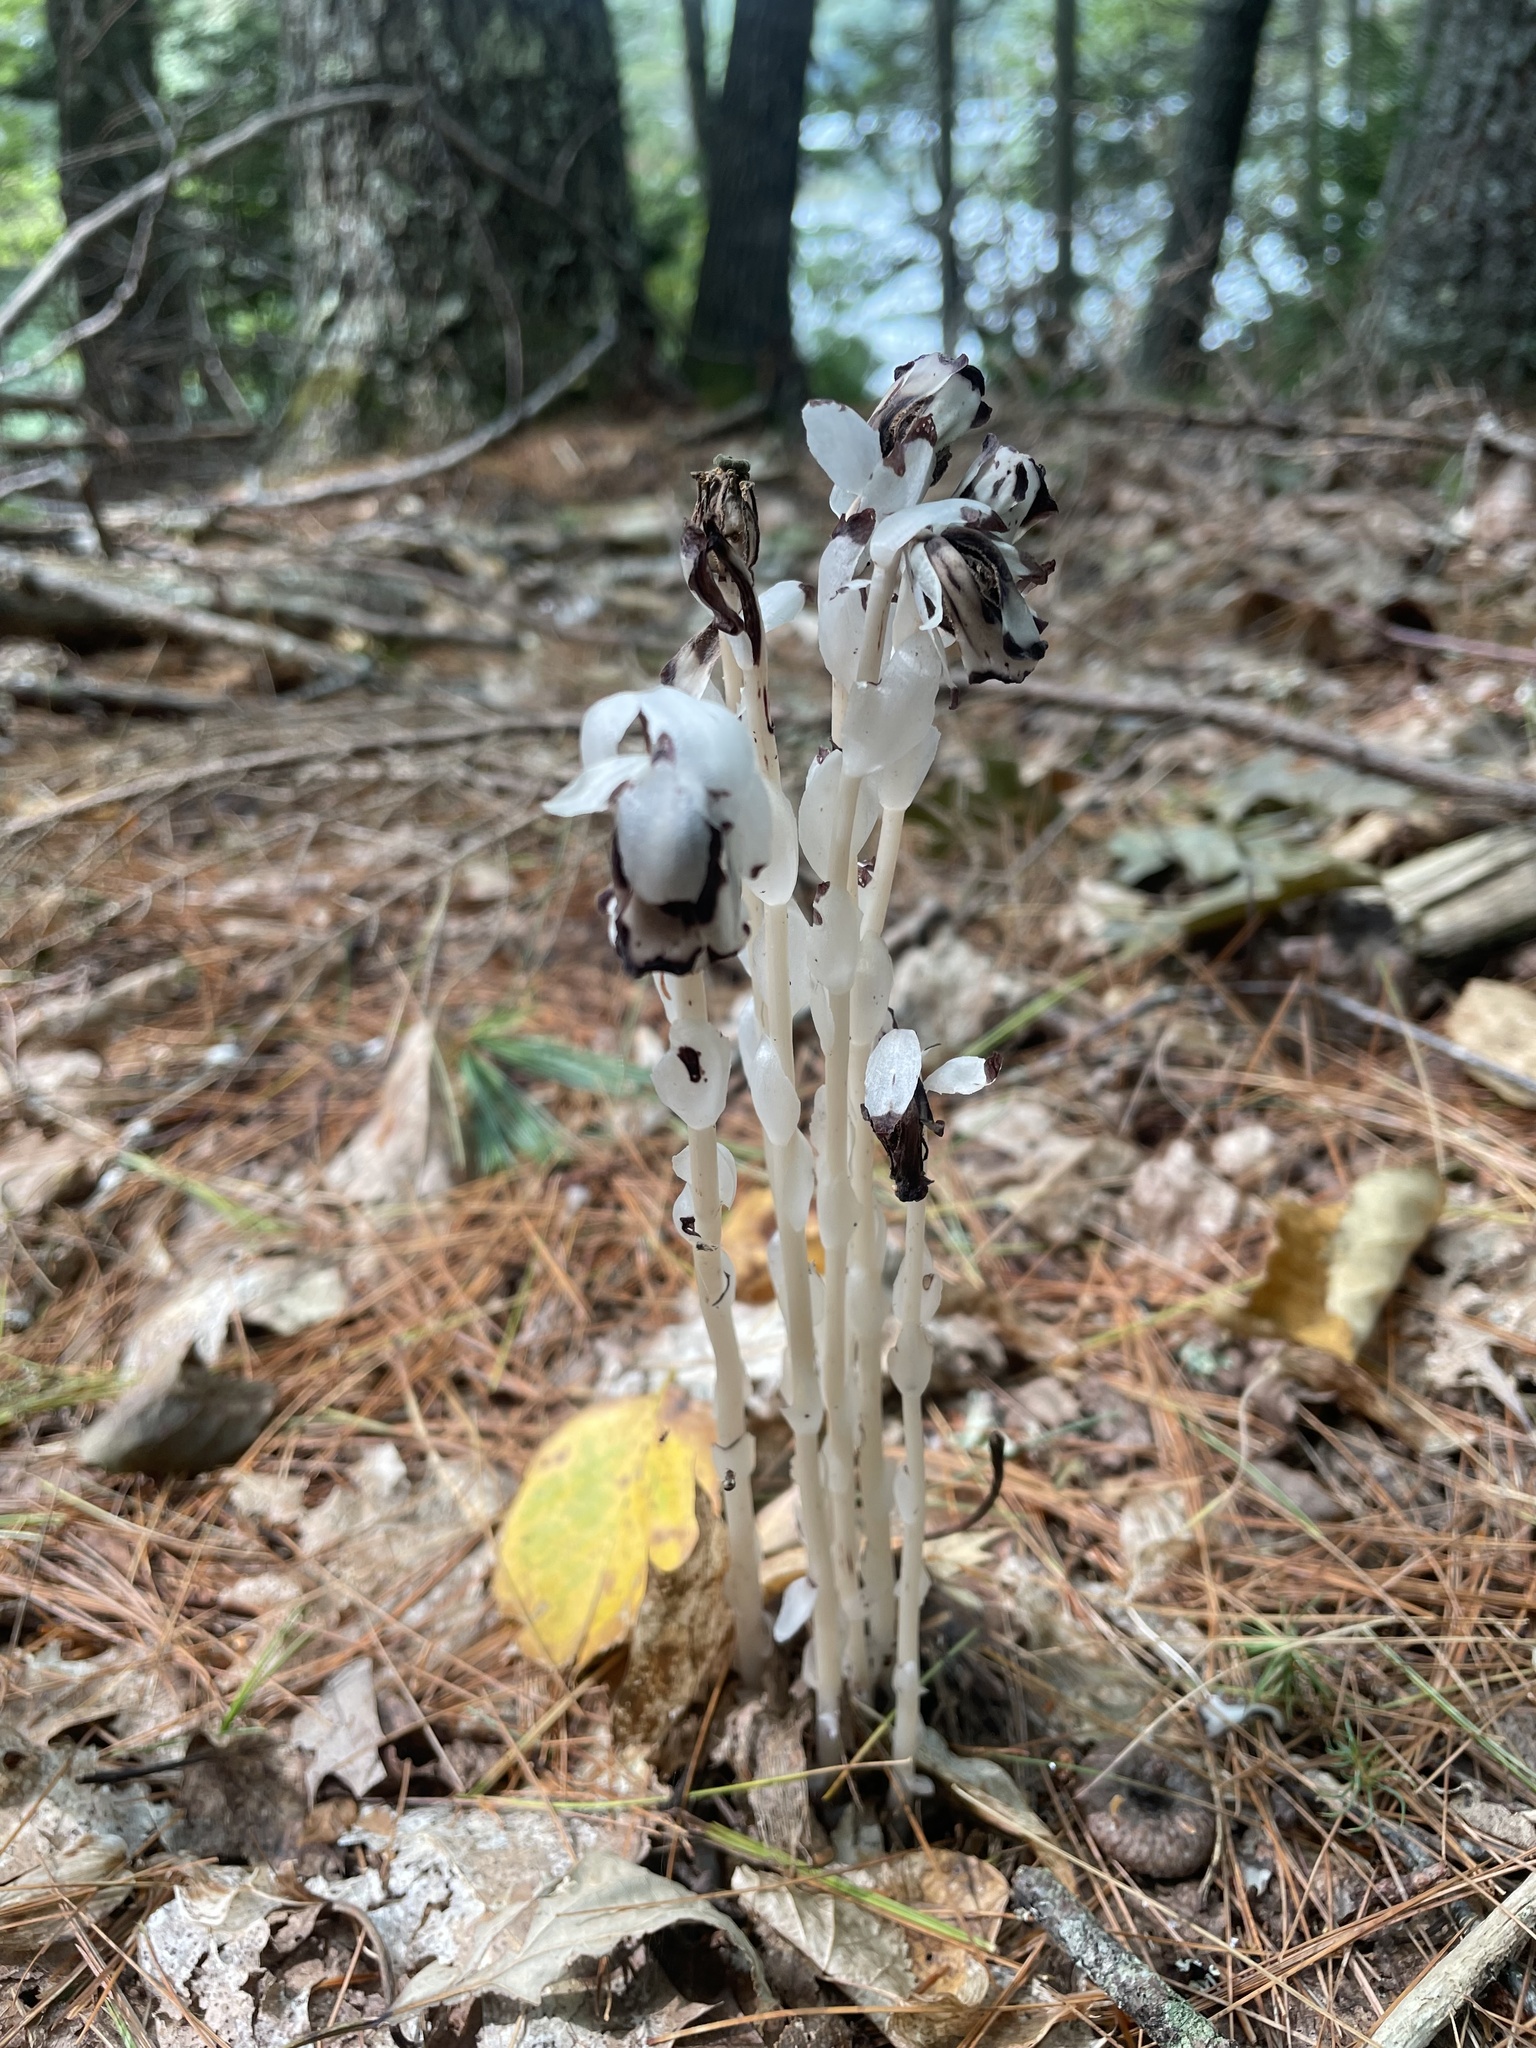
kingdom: Plantae
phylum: Tracheophyta
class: Magnoliopsida
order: Ericales
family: Ericaceae
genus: Monotropa
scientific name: Monotropa uniflora
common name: Convulsion root
